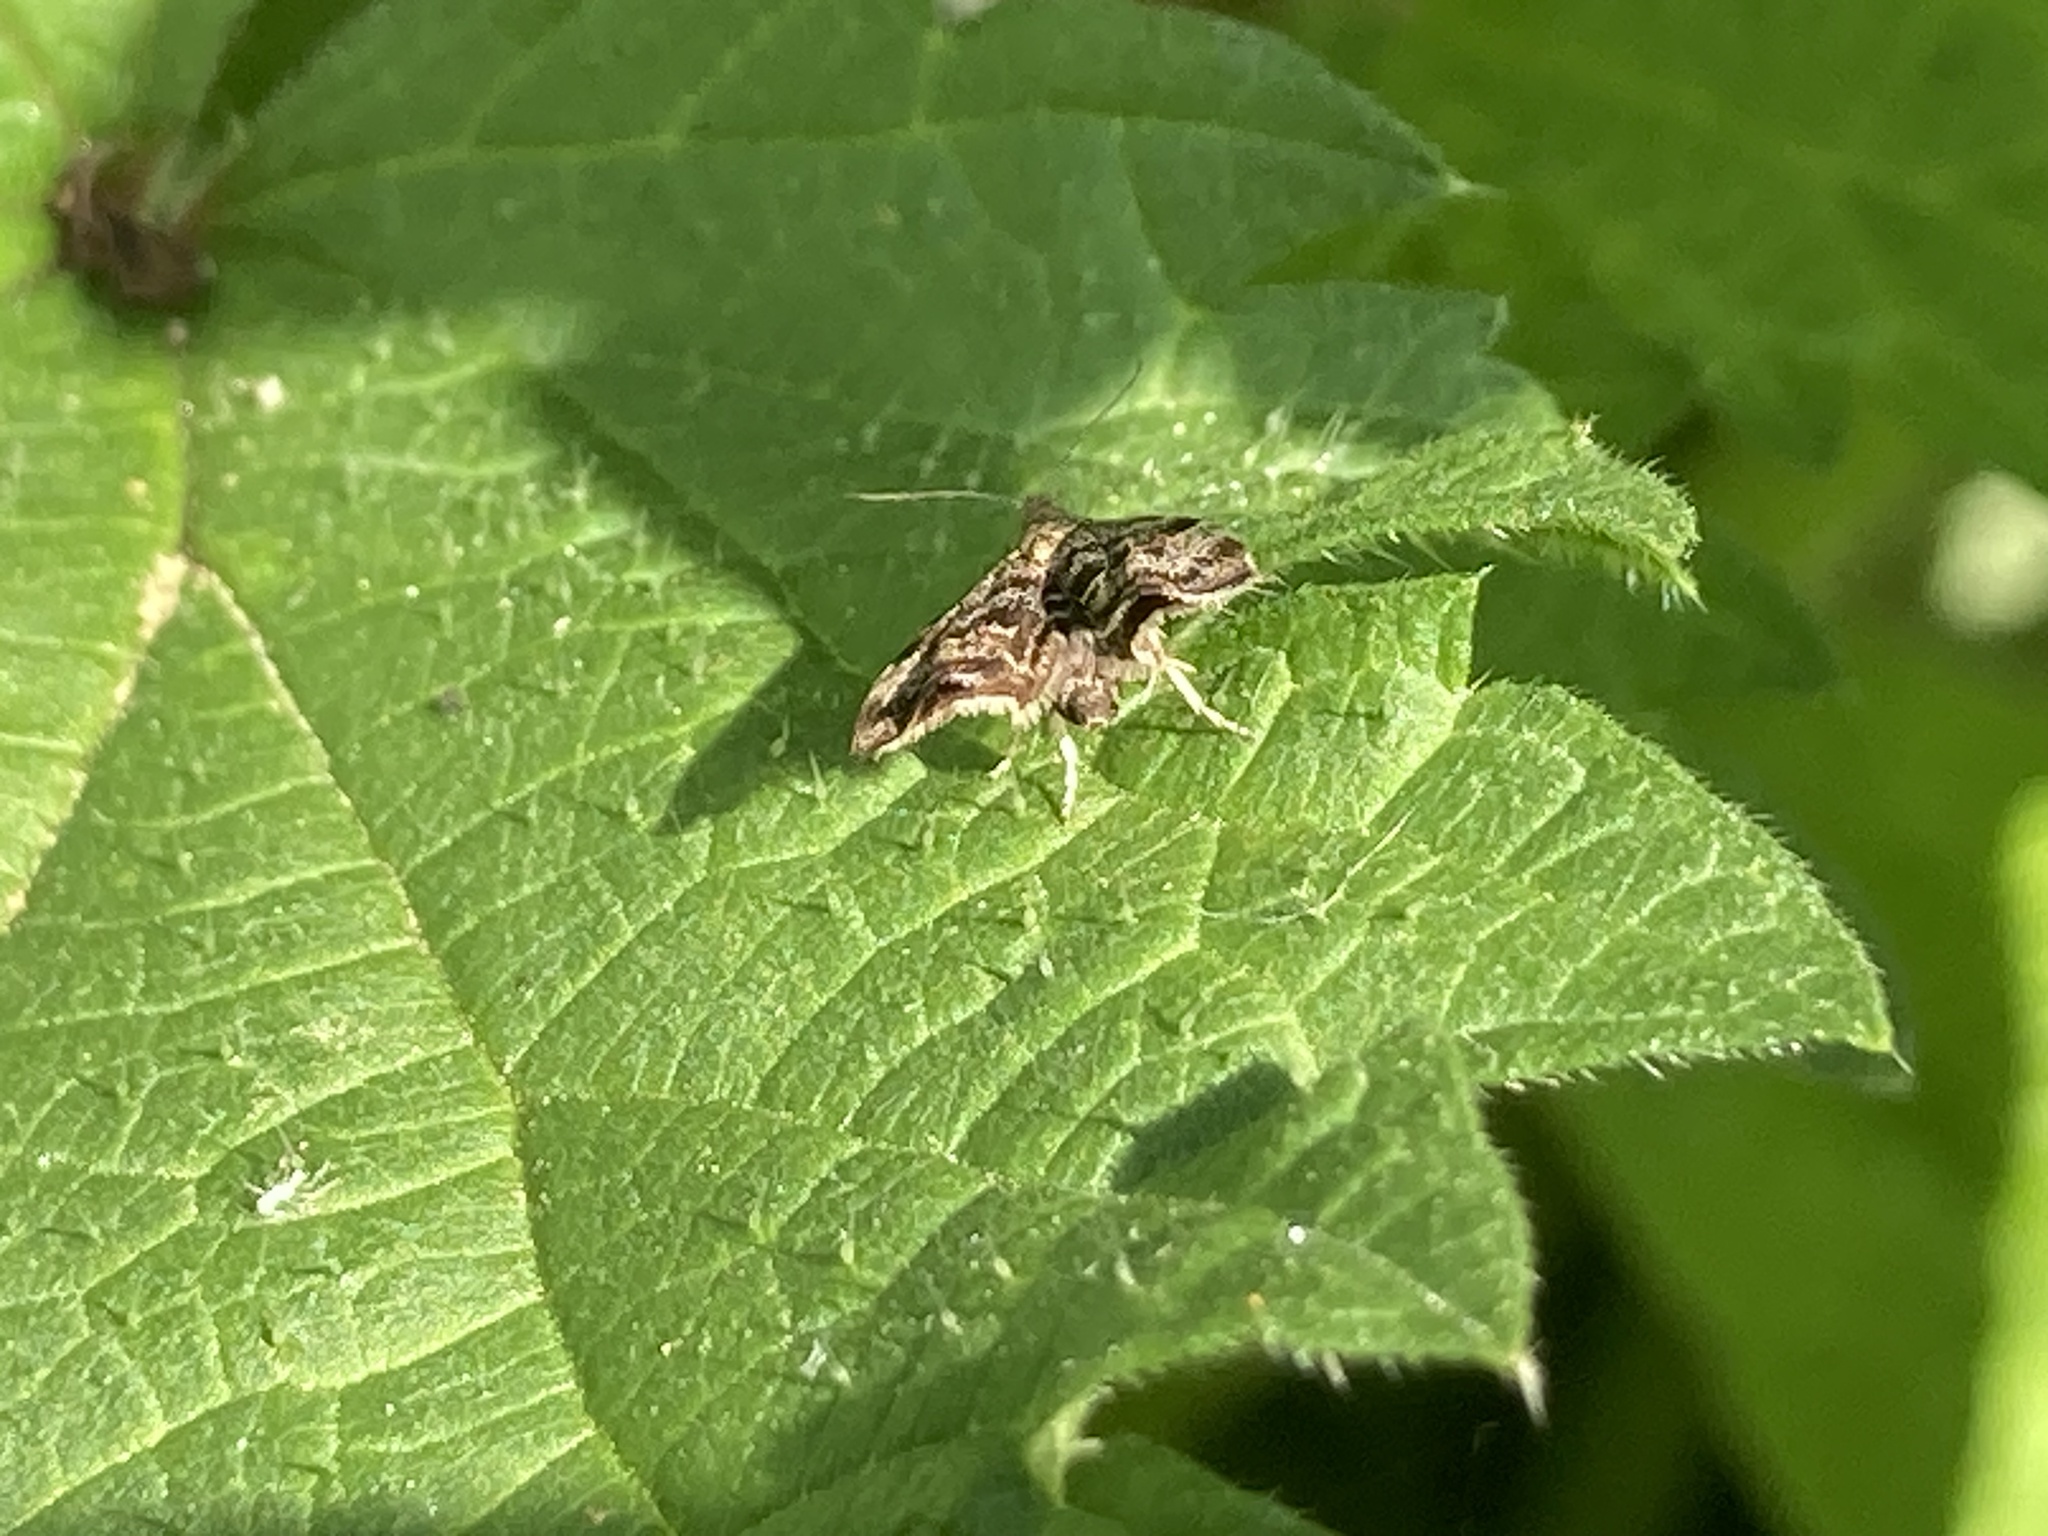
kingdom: Animalia
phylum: Arthropoda
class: Insecta
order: Lepidoptera
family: Choreutidae
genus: Anthophila
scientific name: Anthophila fabriciana
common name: Nettle-tap
